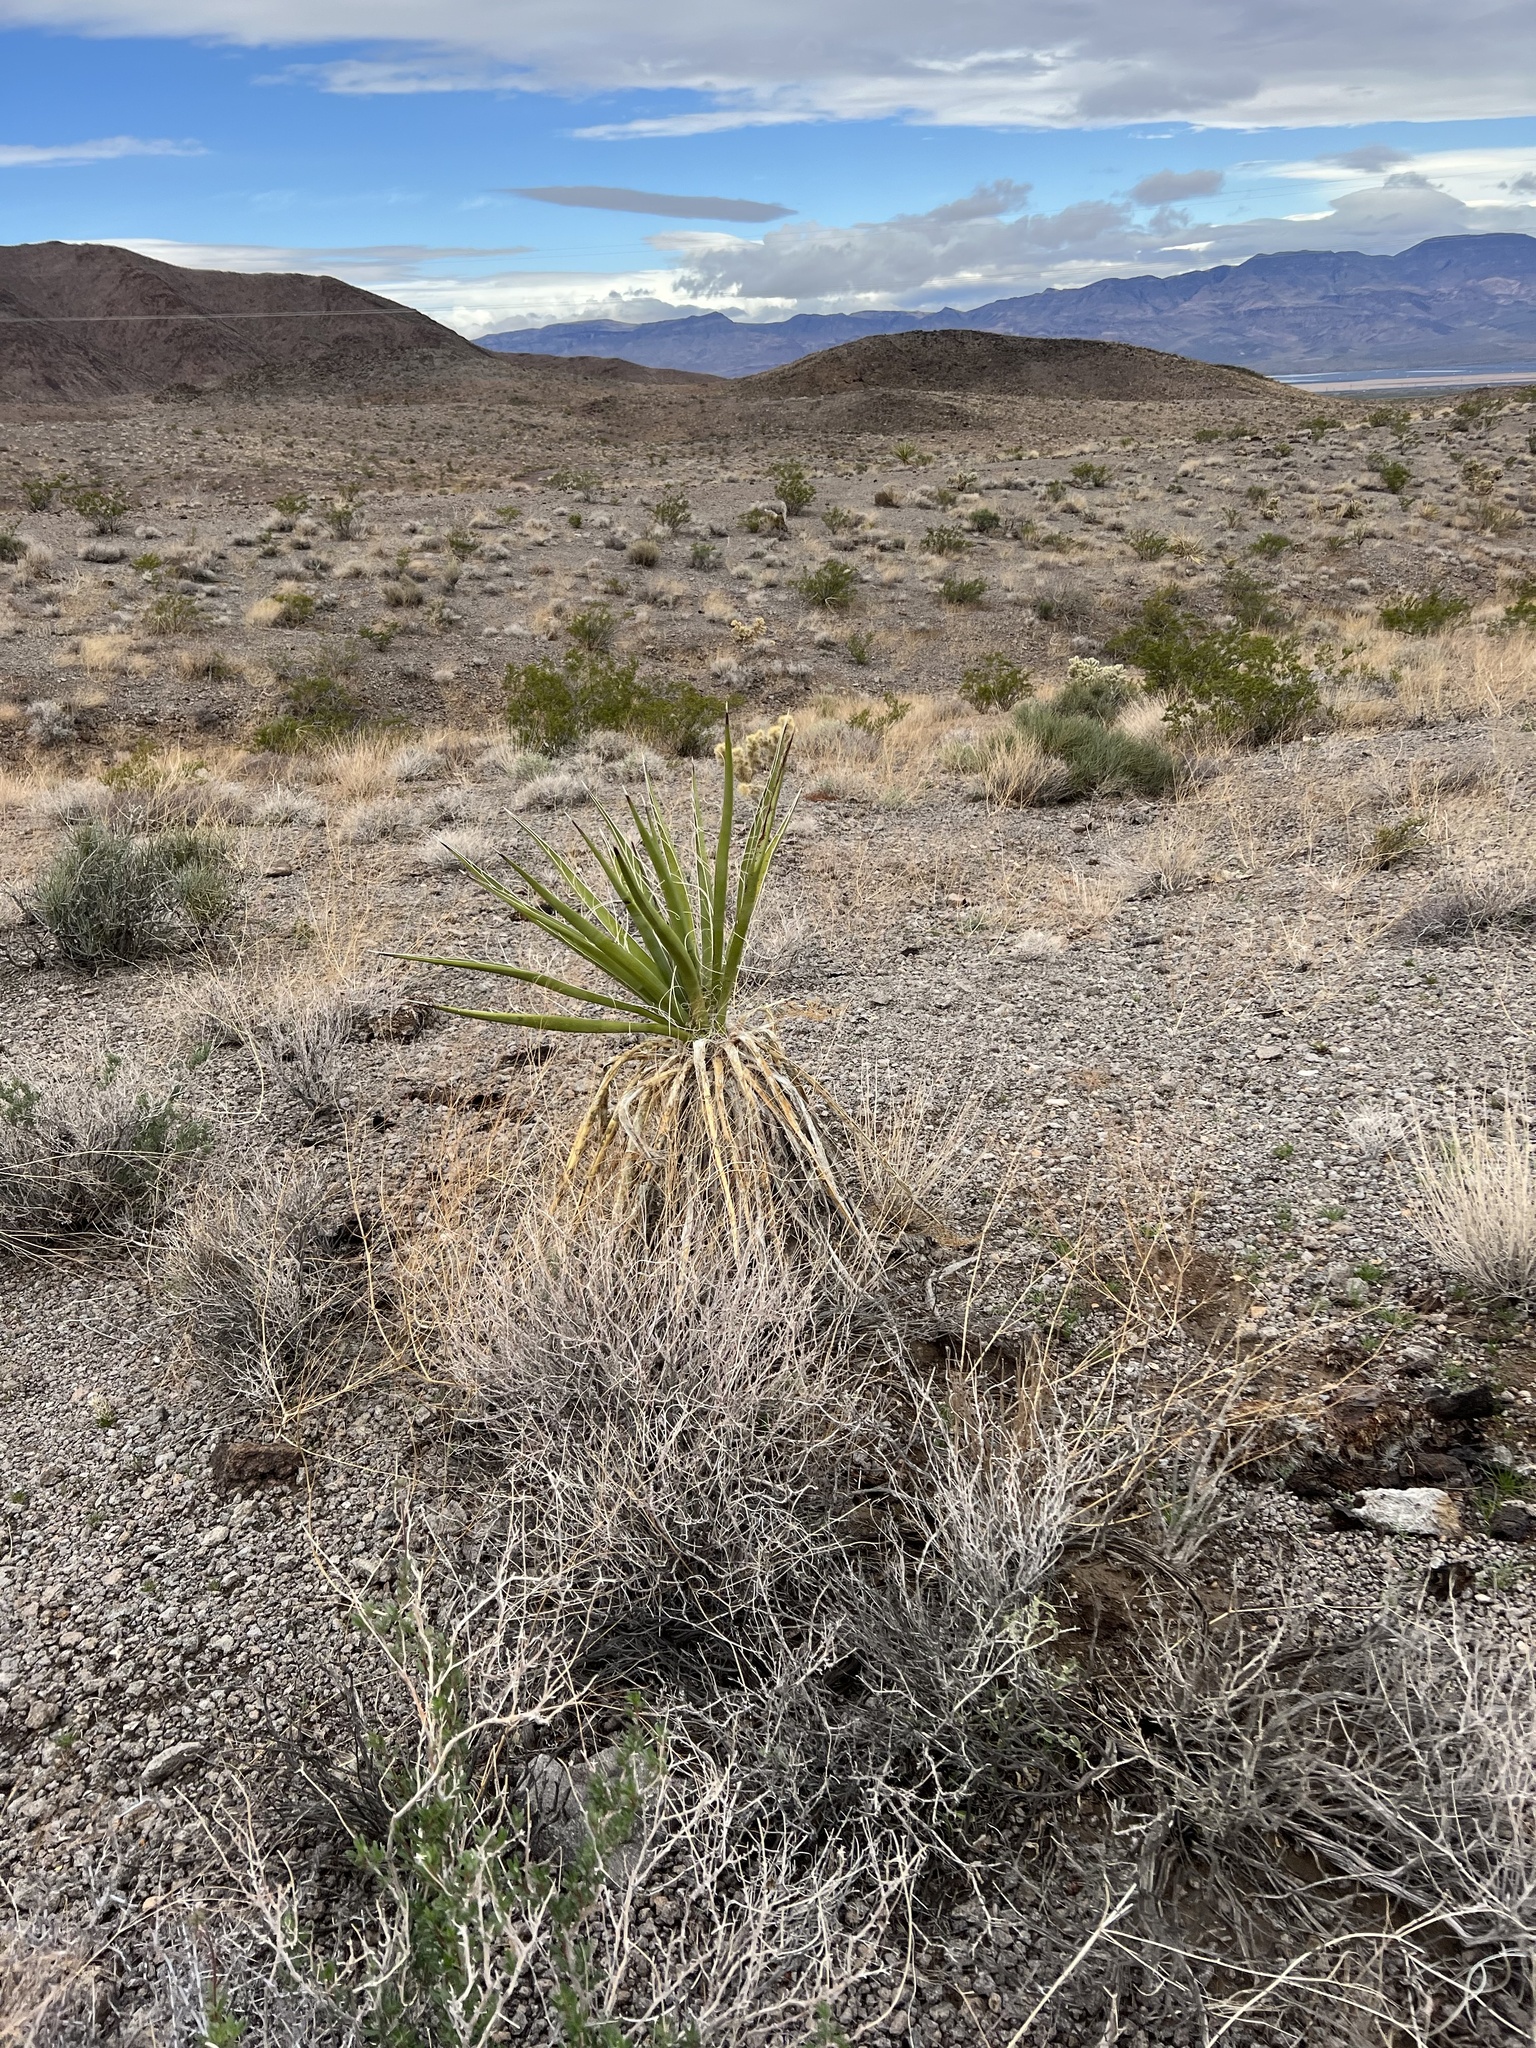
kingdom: Plantae
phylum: Tracheophyta
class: Liliopsida
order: Asparagales
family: Asparagaceae
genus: Yucca
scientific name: Yucca schidigera
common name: Mojave yucca
